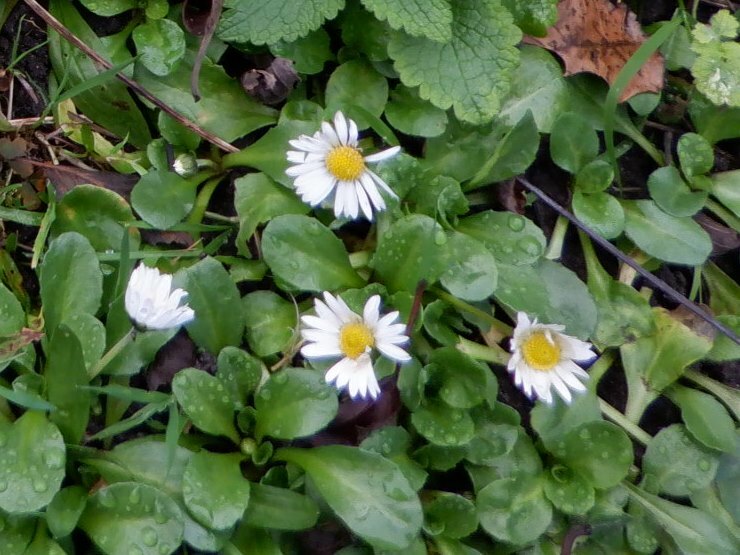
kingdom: Plantae
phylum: Tracheophyta
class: Magnoliopsida
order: Asterales
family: Asteraceae
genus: Bellis
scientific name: Bellis perennis
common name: Lawndaisy
